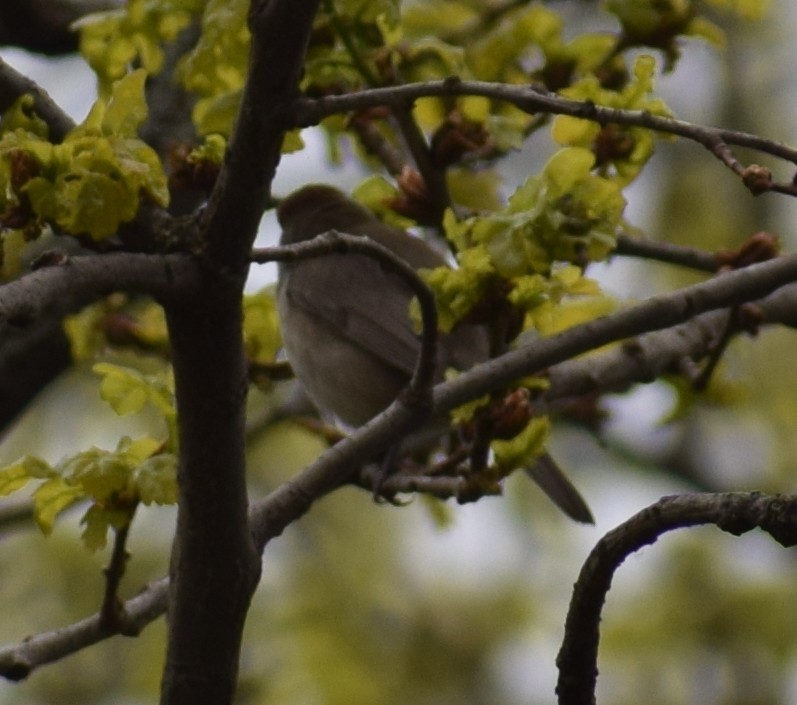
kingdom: Animalia
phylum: Chordata
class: Aves
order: Passeriformes
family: Sylviidae
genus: Sylvia
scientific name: Sylvia atricapilla
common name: Eurasian blackcap
